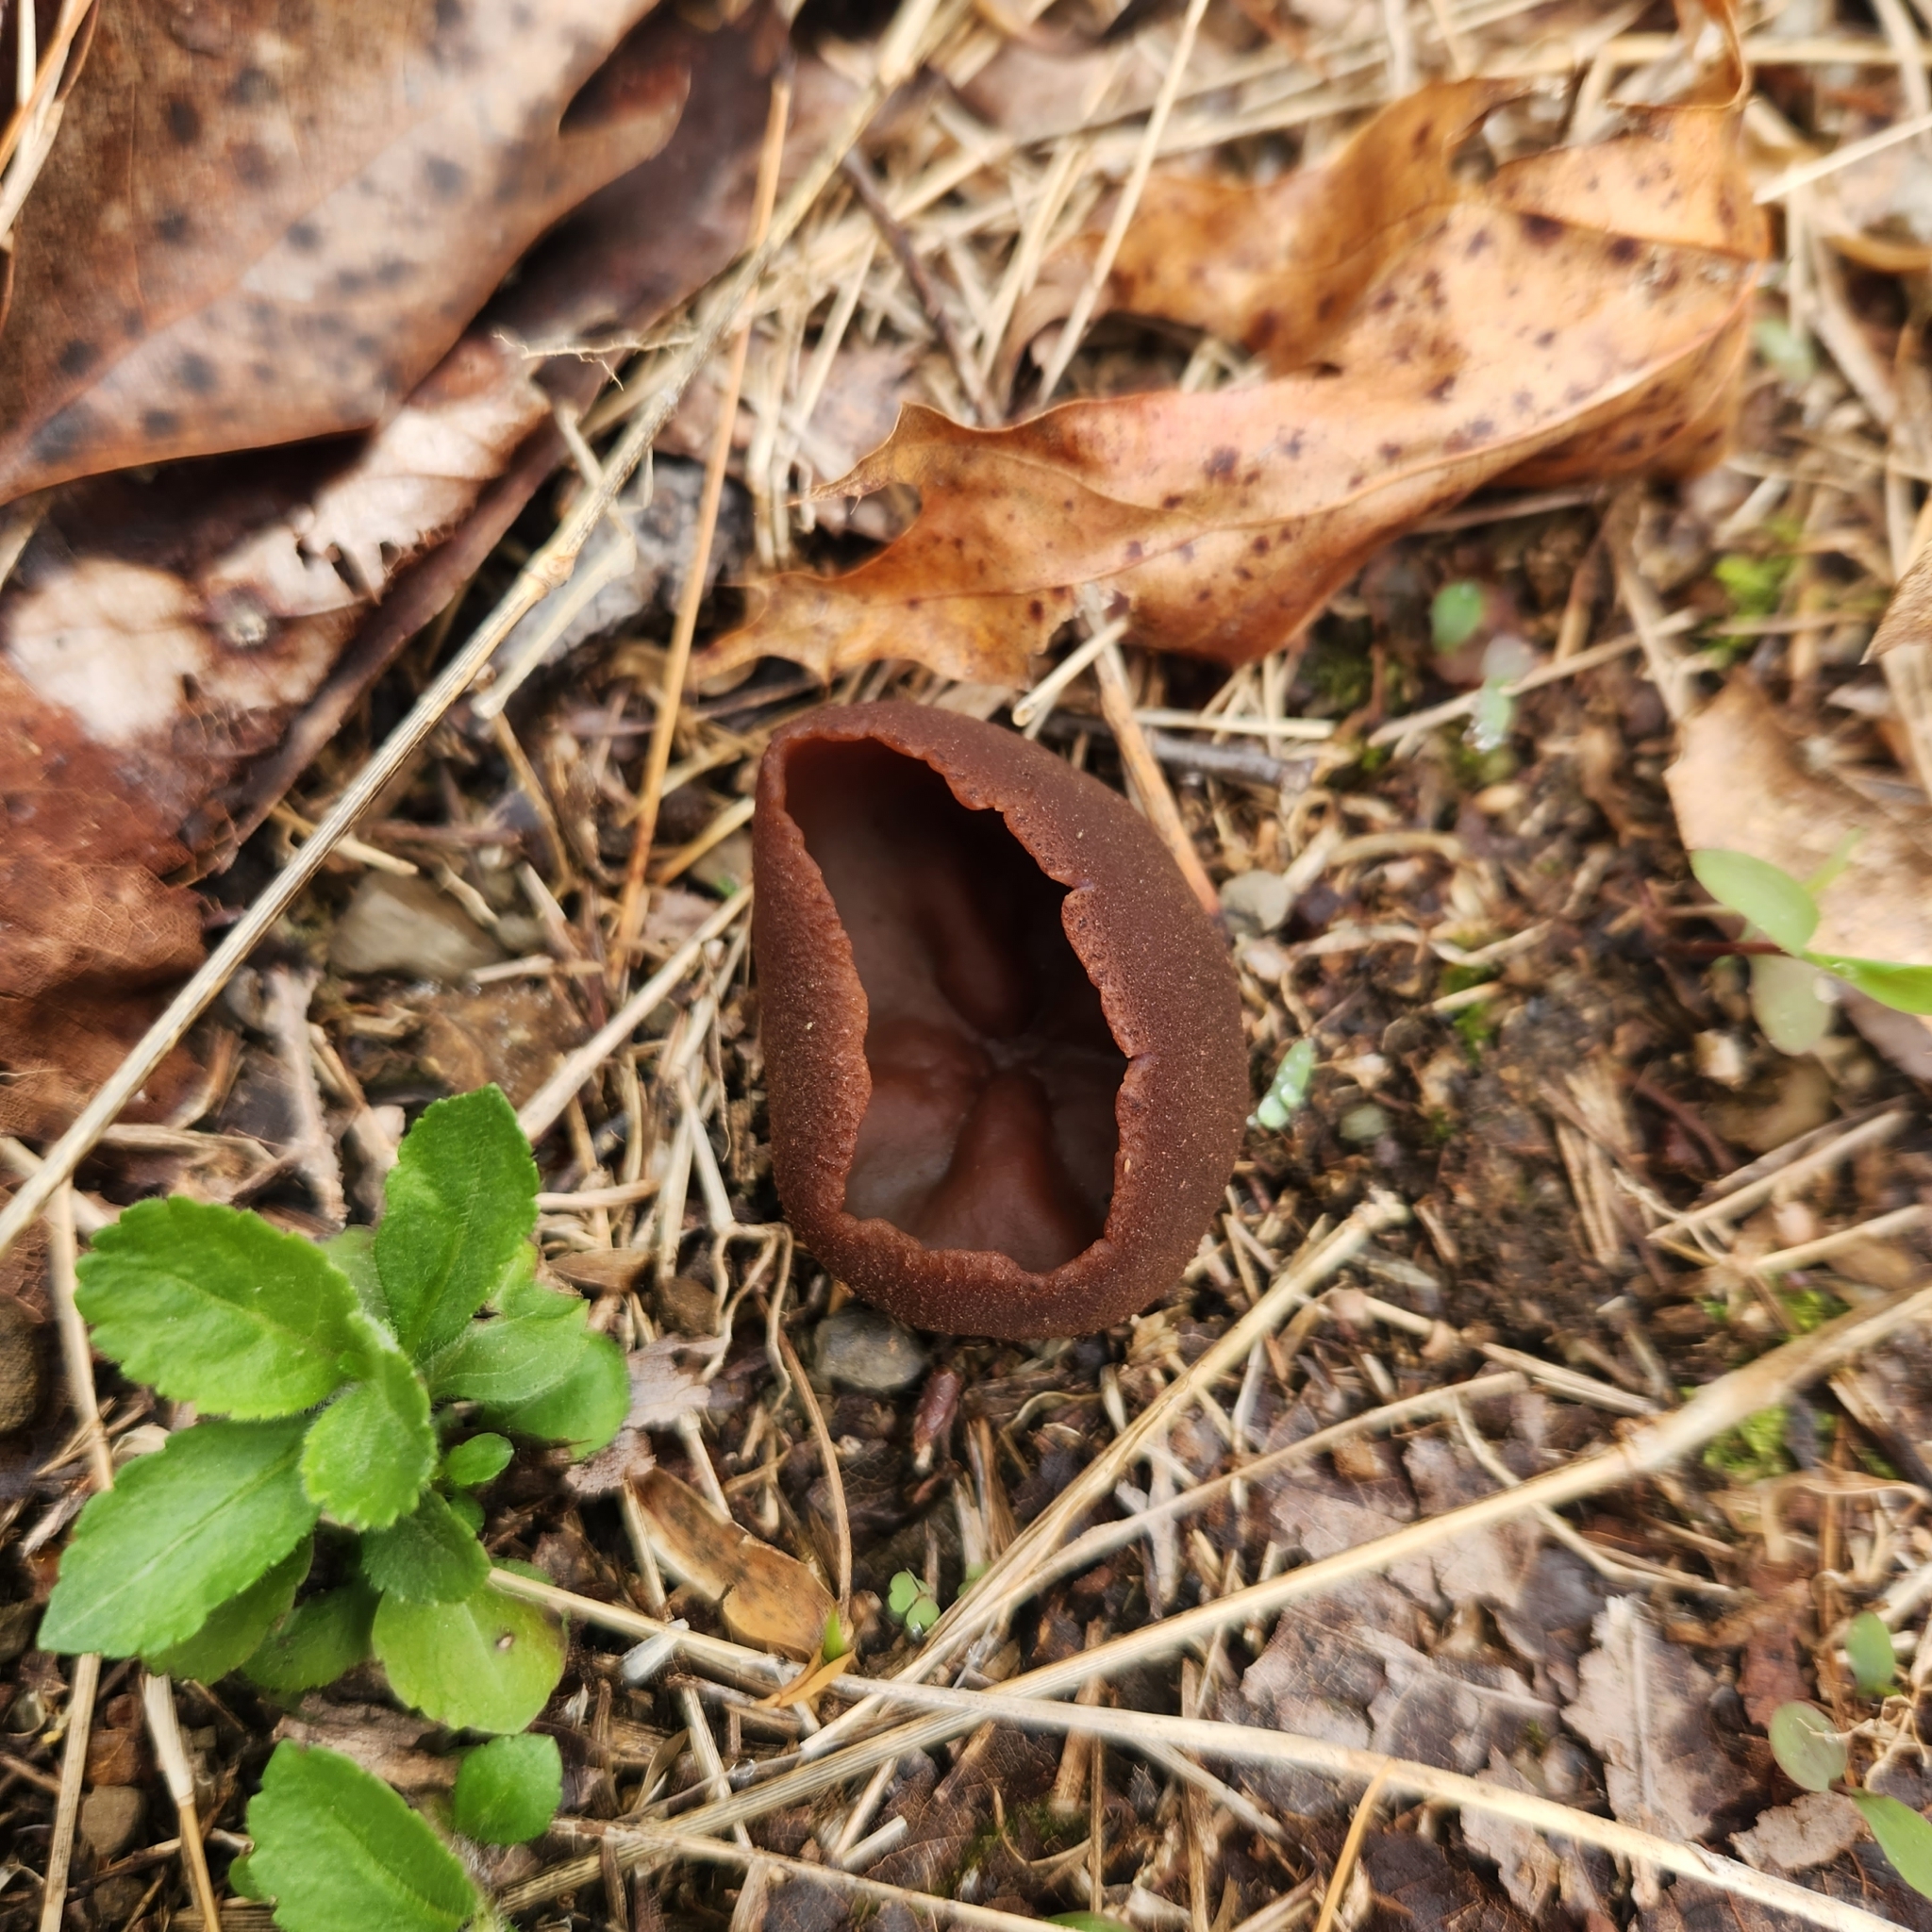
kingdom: Fungi
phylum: Ascomycota
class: Pezizomycetes
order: Pezizales
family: Pezizaceae
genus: Phylloscypha
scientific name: Phylloscypha phyllogena
